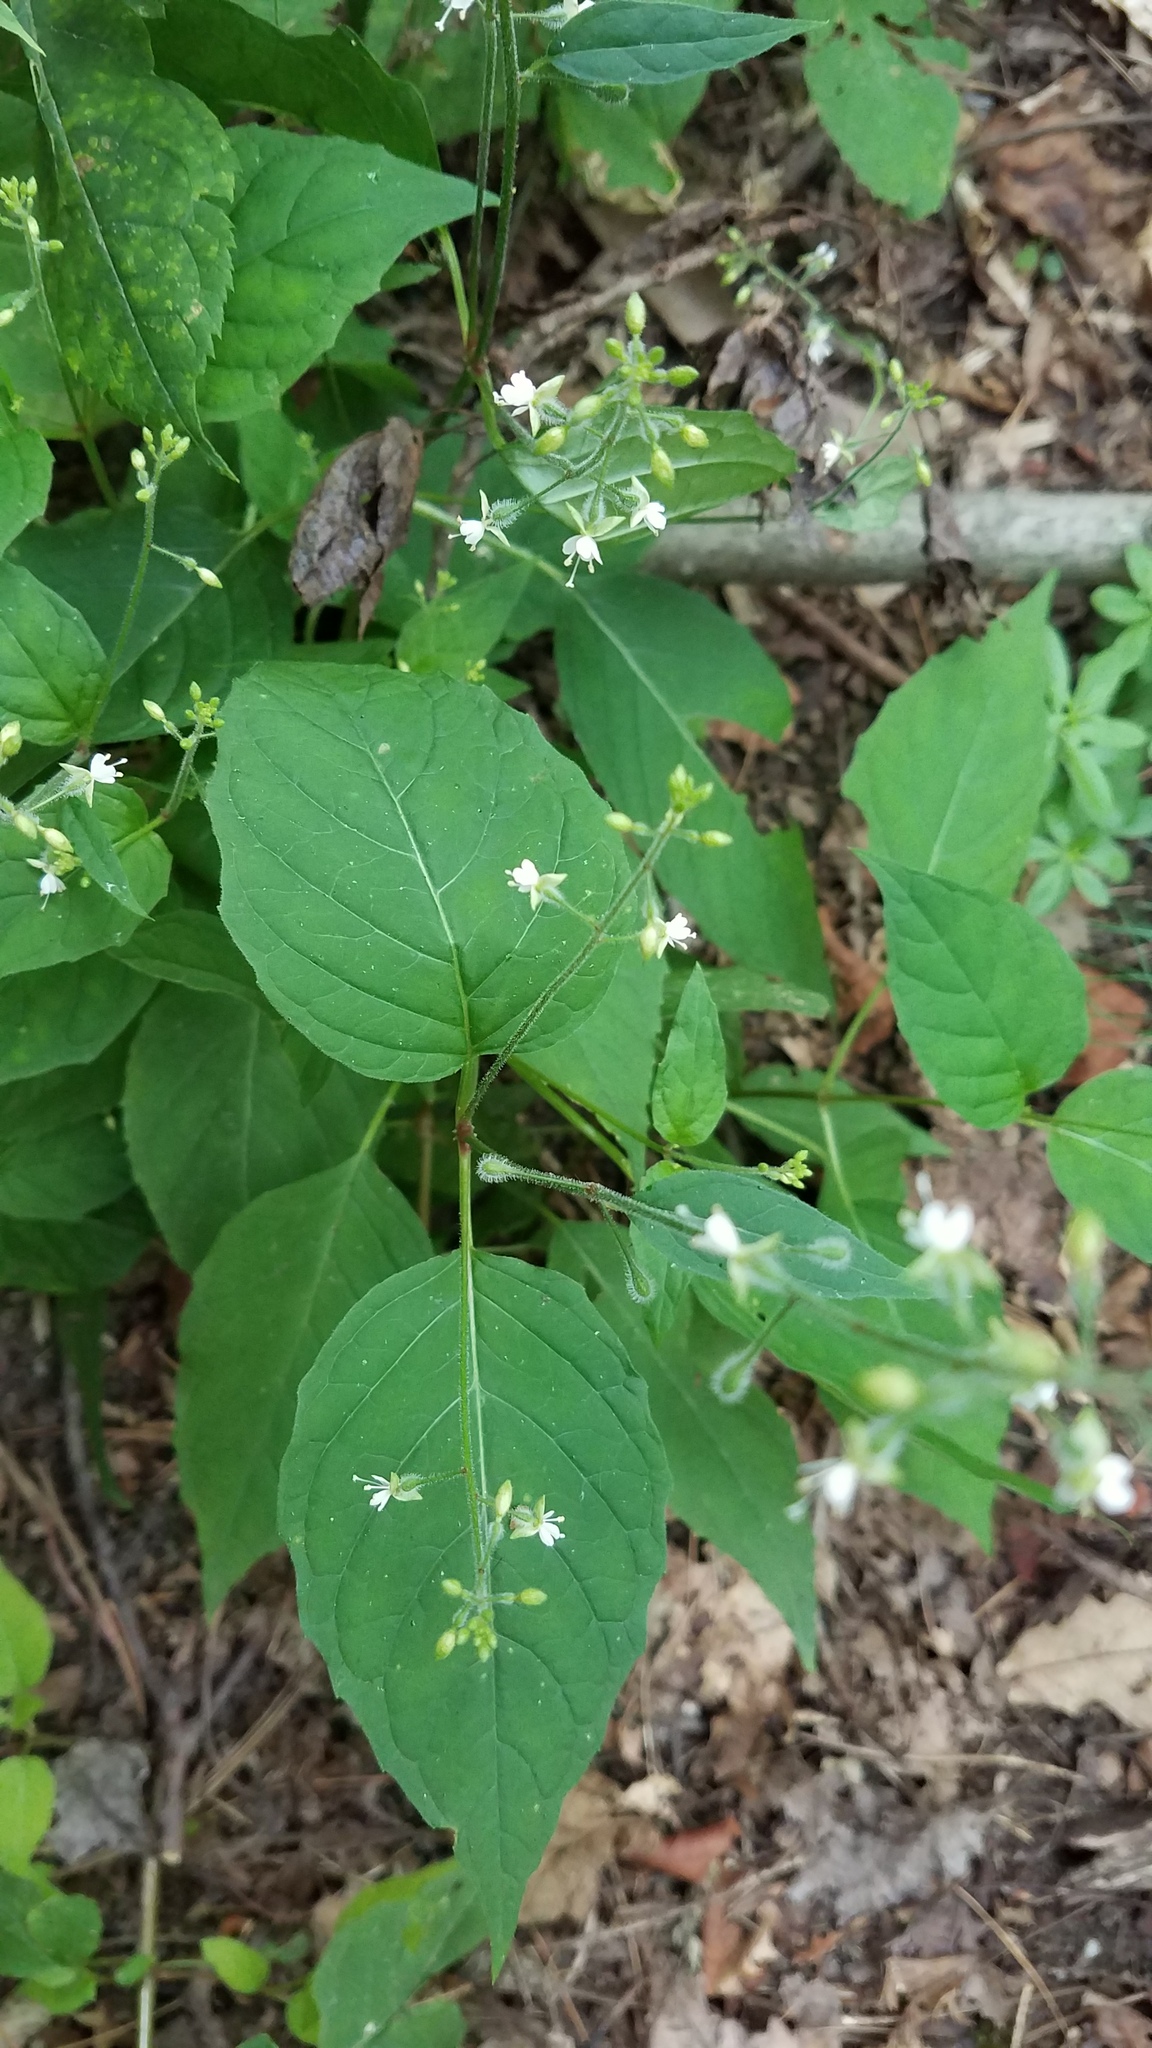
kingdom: Plantae
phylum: Tracheophyta
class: Magnoliopsida
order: Myrtales
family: Onagraceae
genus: Circaea
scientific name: Circaea canadensis
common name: Broad-leaved enchanter's nightshade
